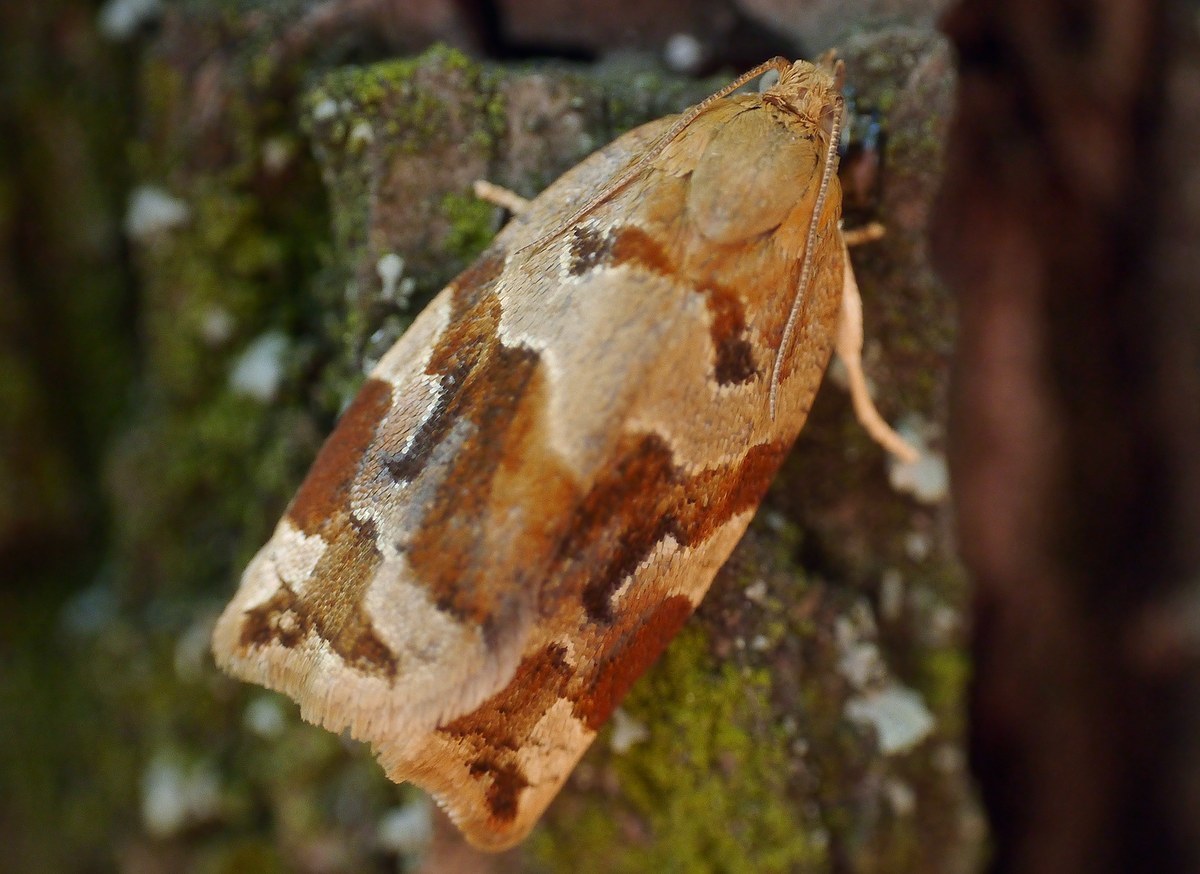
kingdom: Animalia
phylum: Arthropoda
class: Insecta
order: Lepidoptera
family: Tortricidae
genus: Archips
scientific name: Archips xylosteana
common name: Variegated golden tortrix
